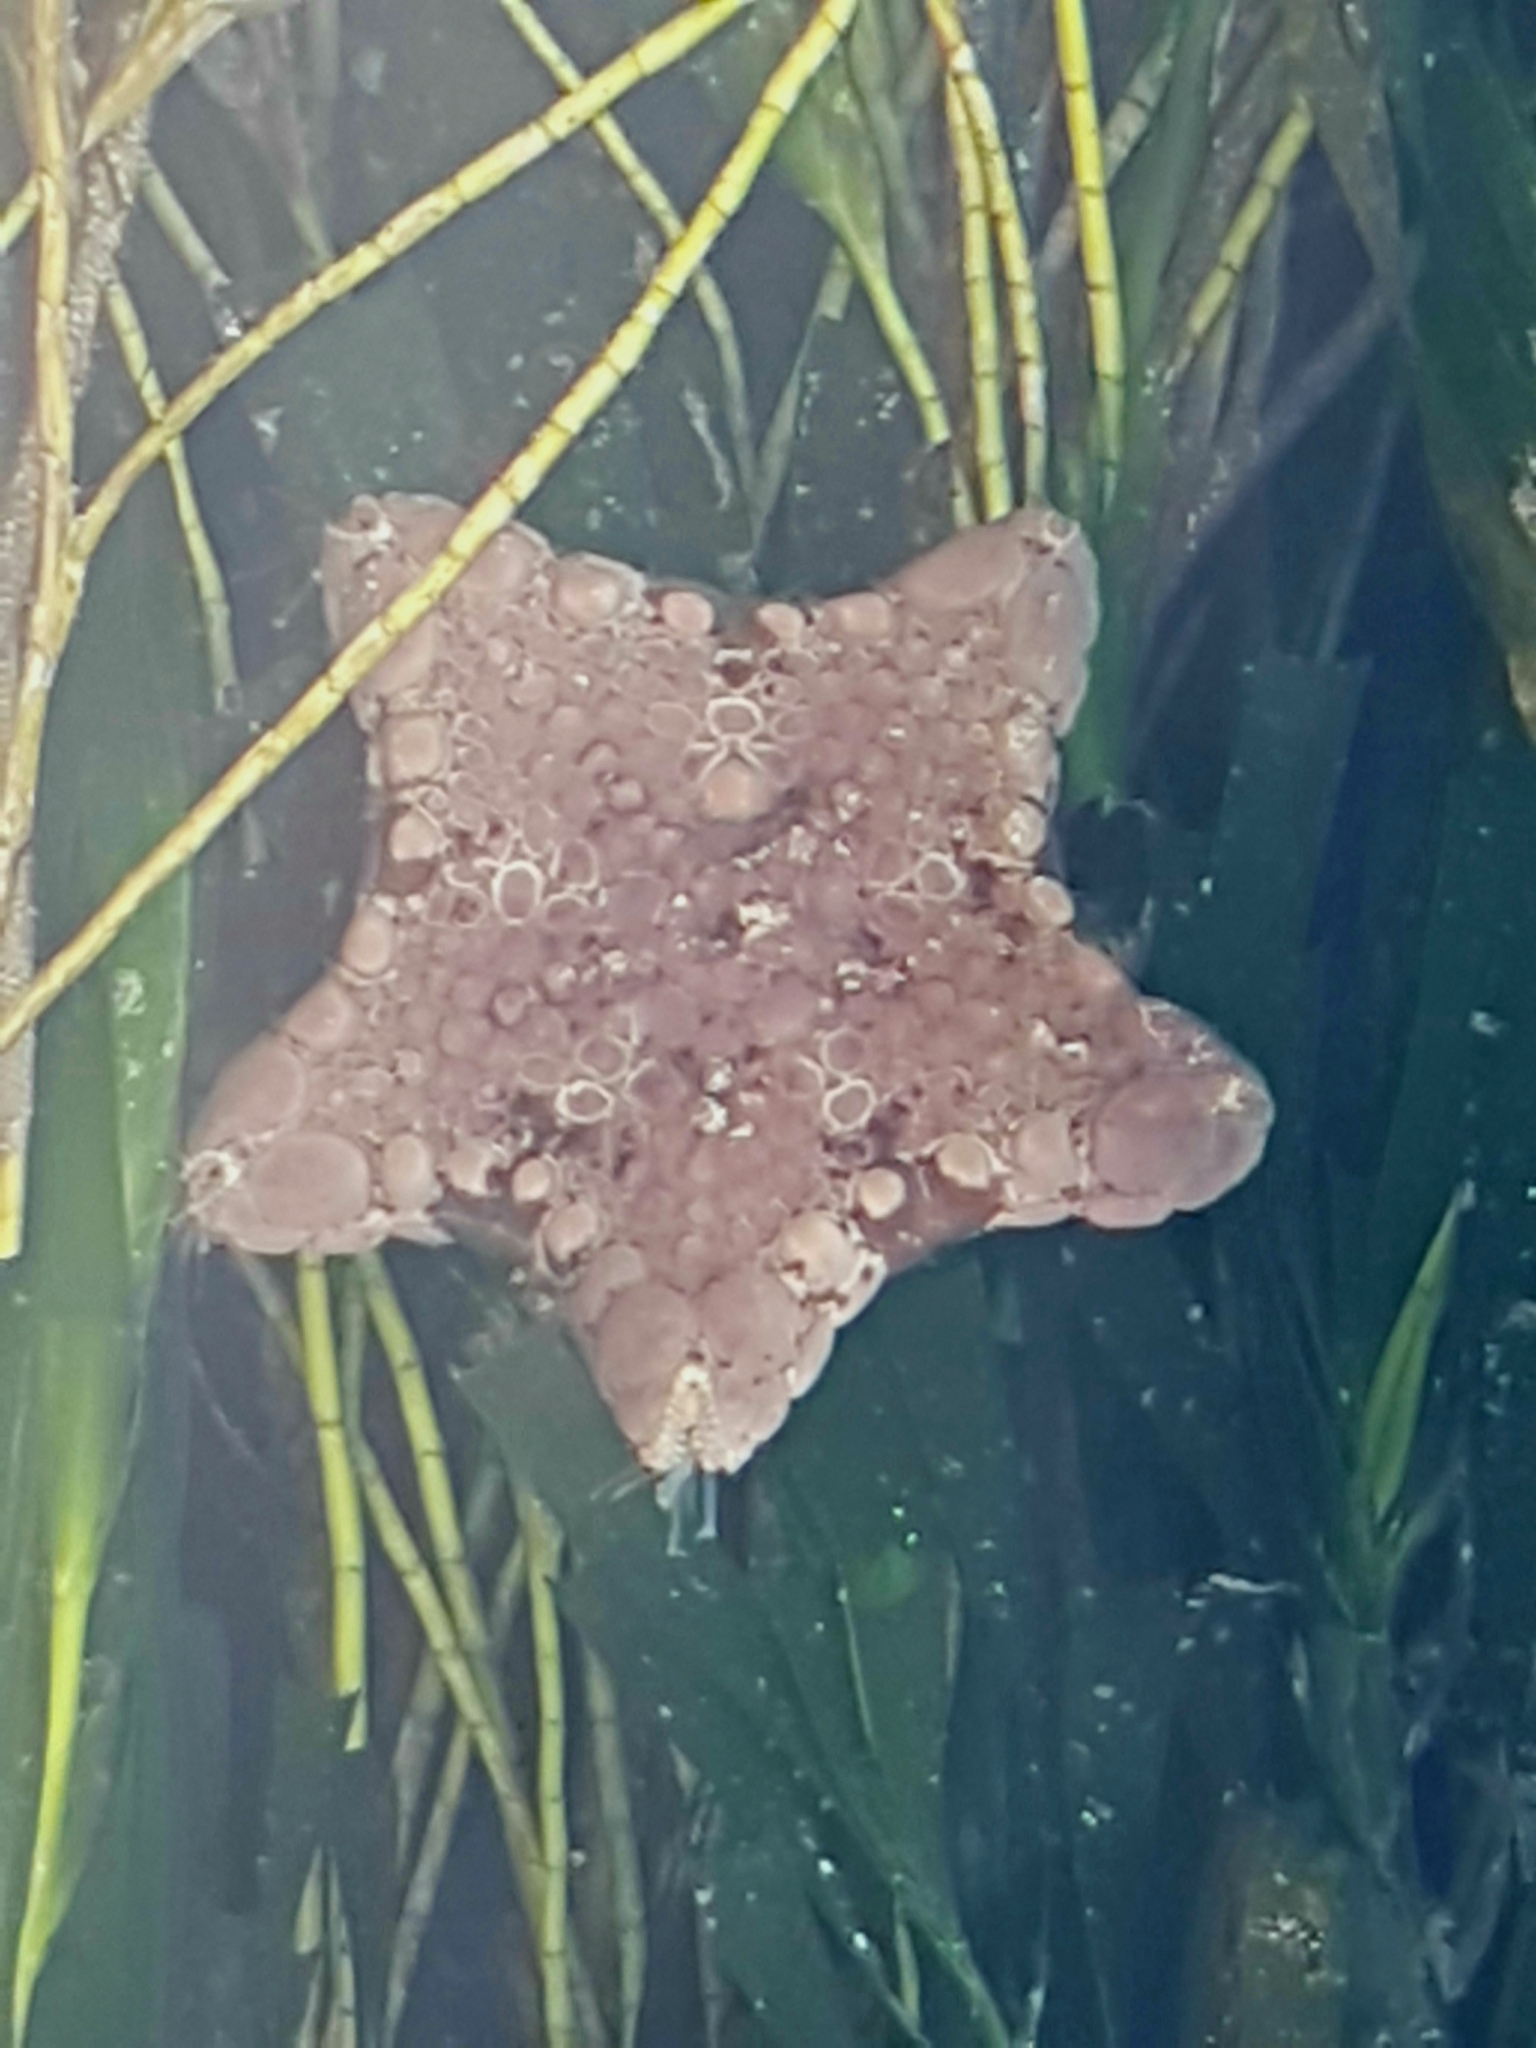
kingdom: Animalia
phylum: Echinodermata
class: Asteroidea
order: Valvatida
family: Goniasteridae
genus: Tosia
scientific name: Tosia australis
